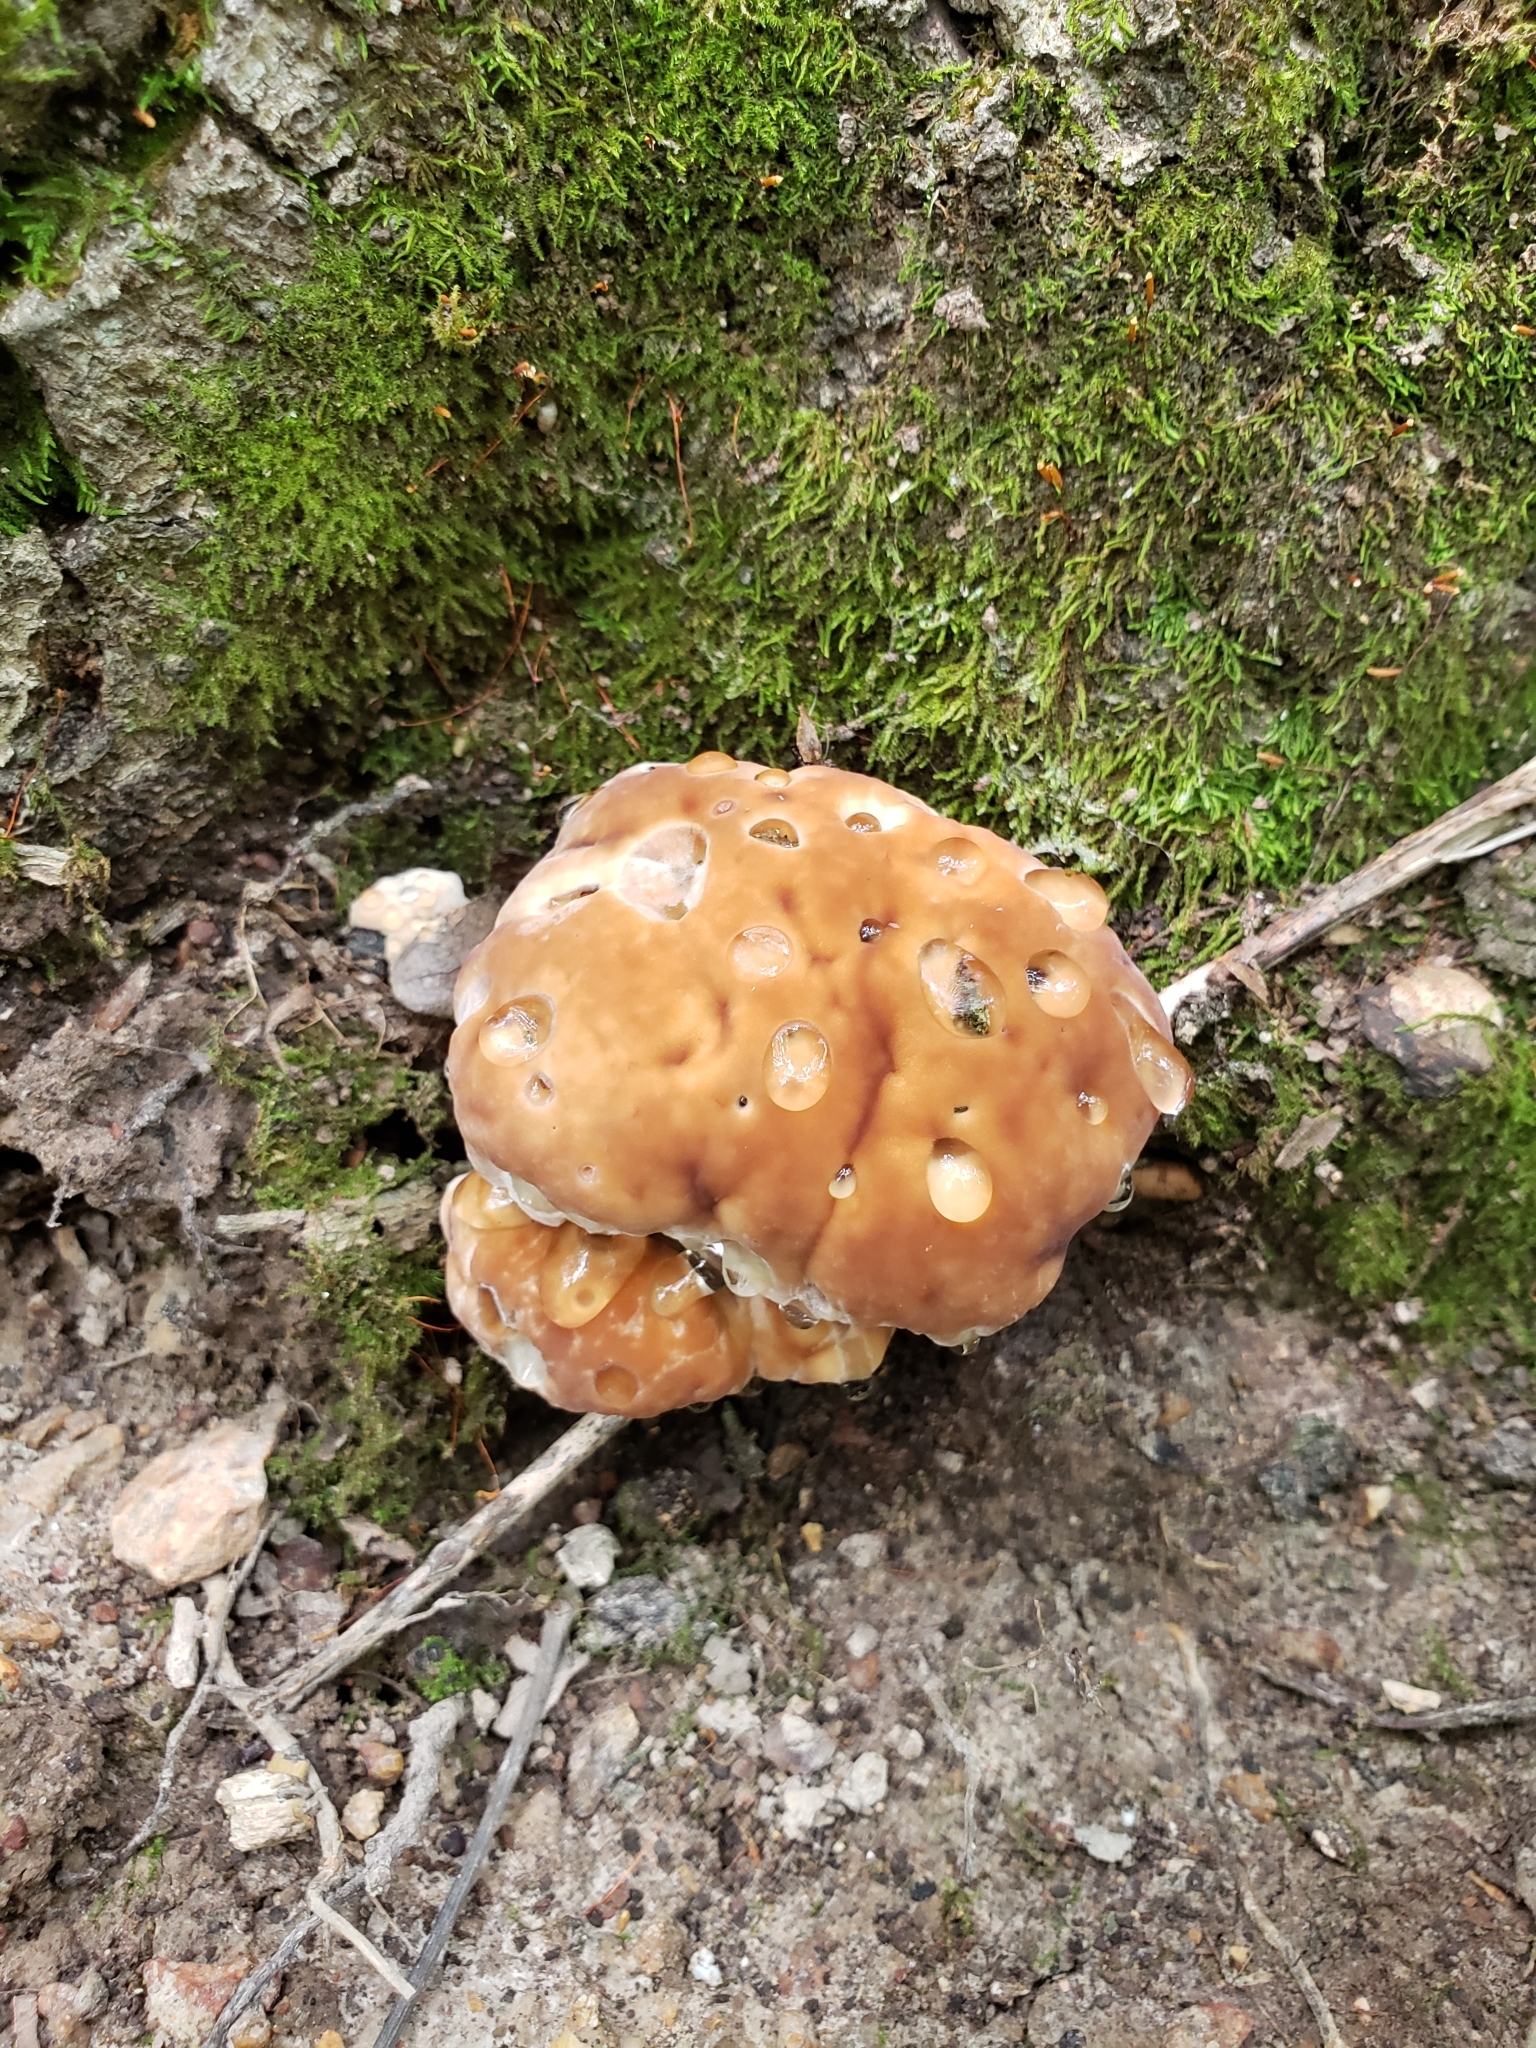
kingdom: Fungi
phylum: Basidiomycota
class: Agaricomycetes
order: Polyporales
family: Fomitopsidaceae
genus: Niveoporofomes
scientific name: Niveoporofomes spraguei
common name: Green cheese polypore
